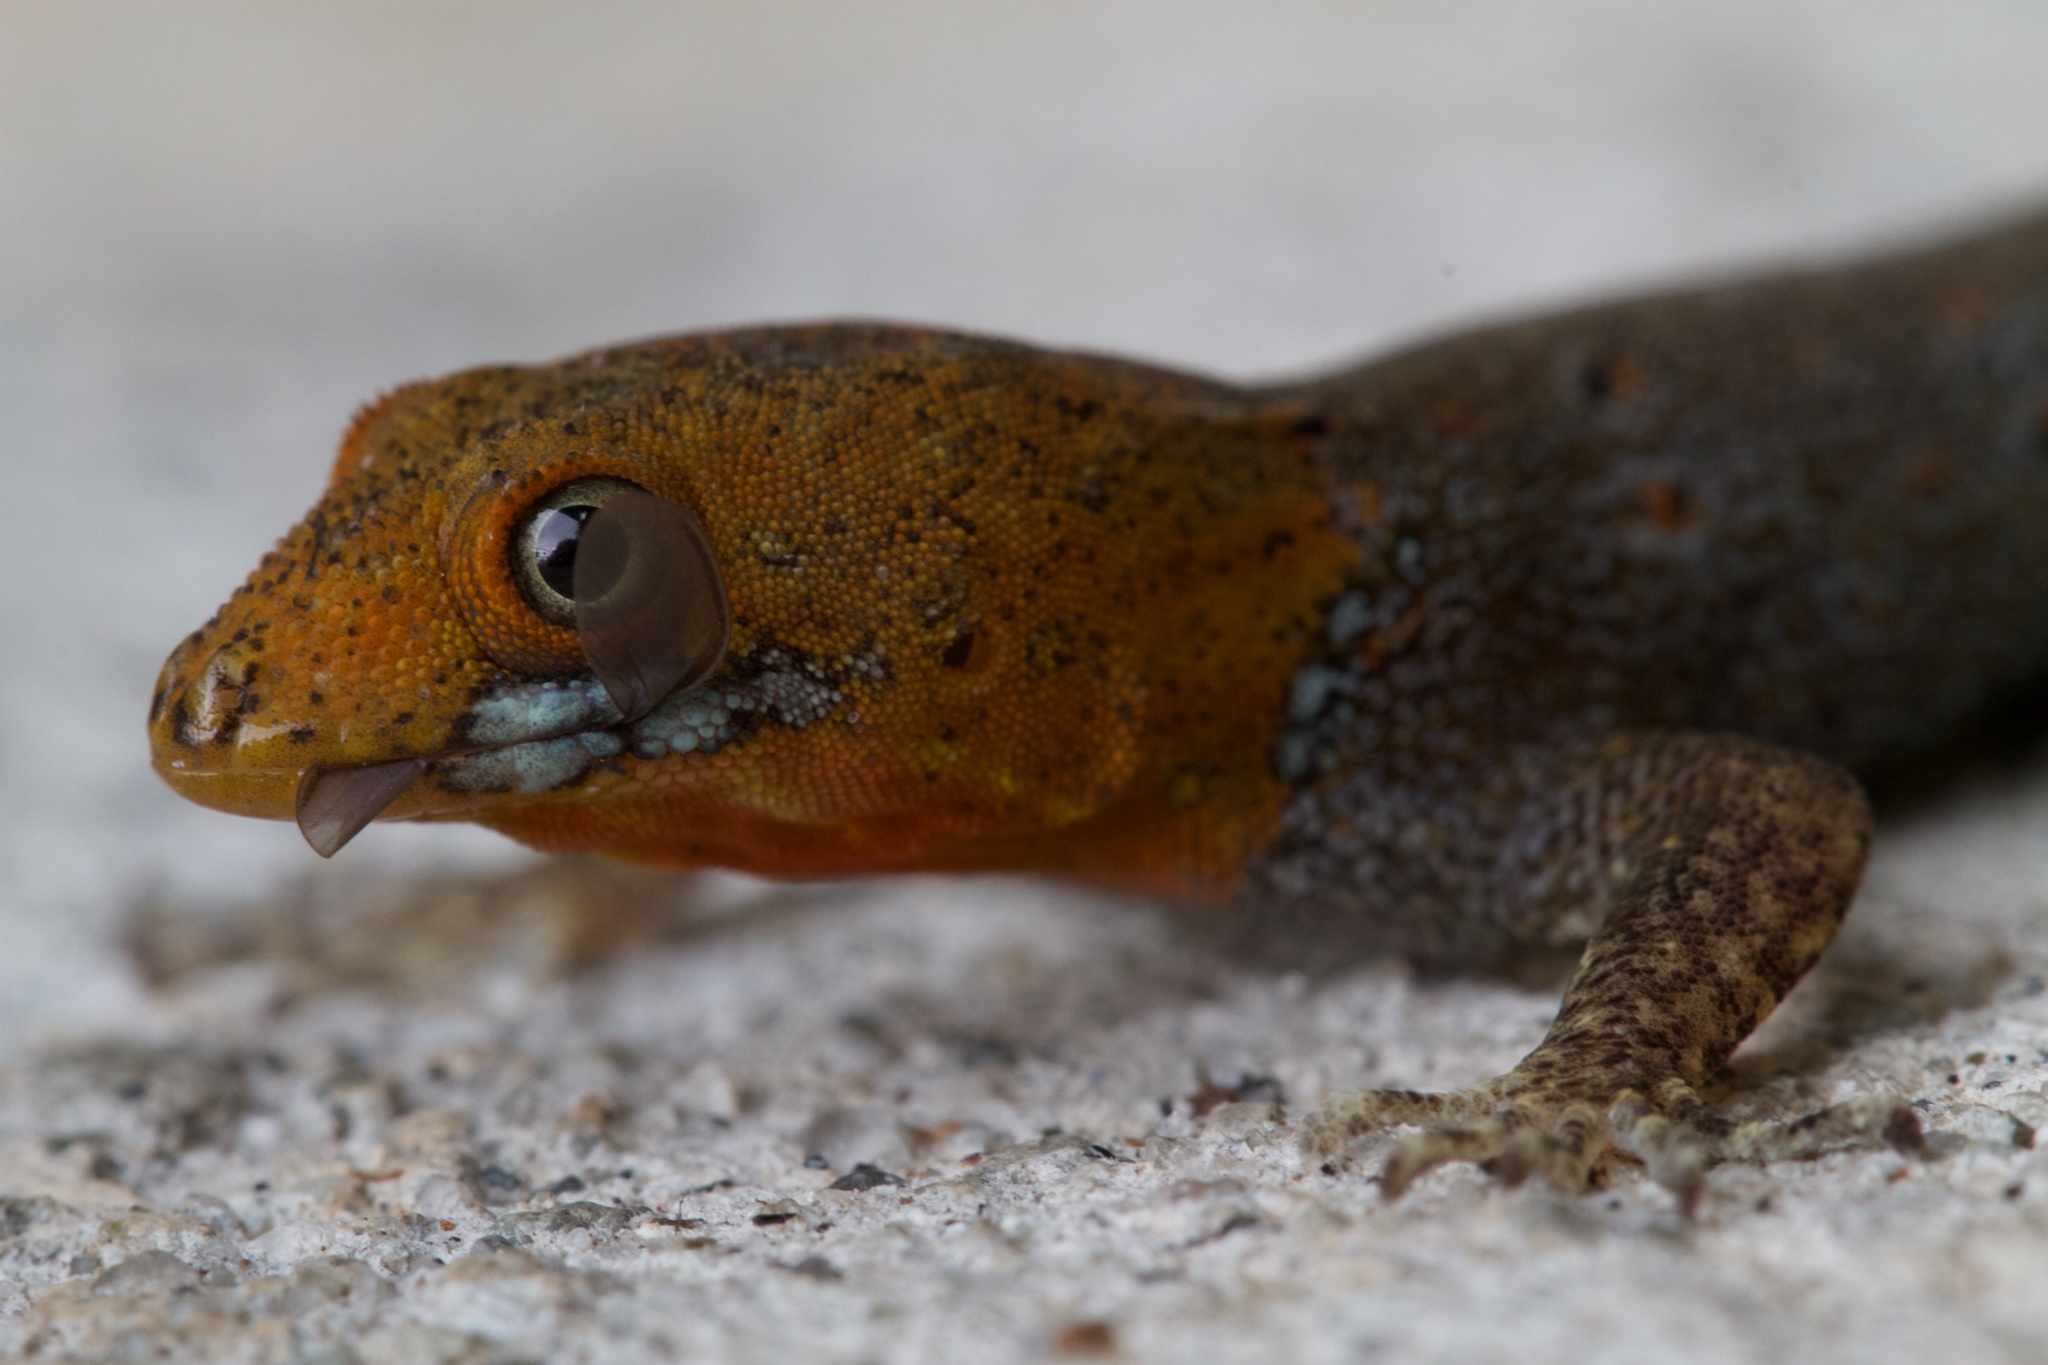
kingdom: Animalia
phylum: Chordata
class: Squamata
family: Sphaerodactylidae
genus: Gonatodes
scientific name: Gonatodes albogularis
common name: Yellow-headed gecko
